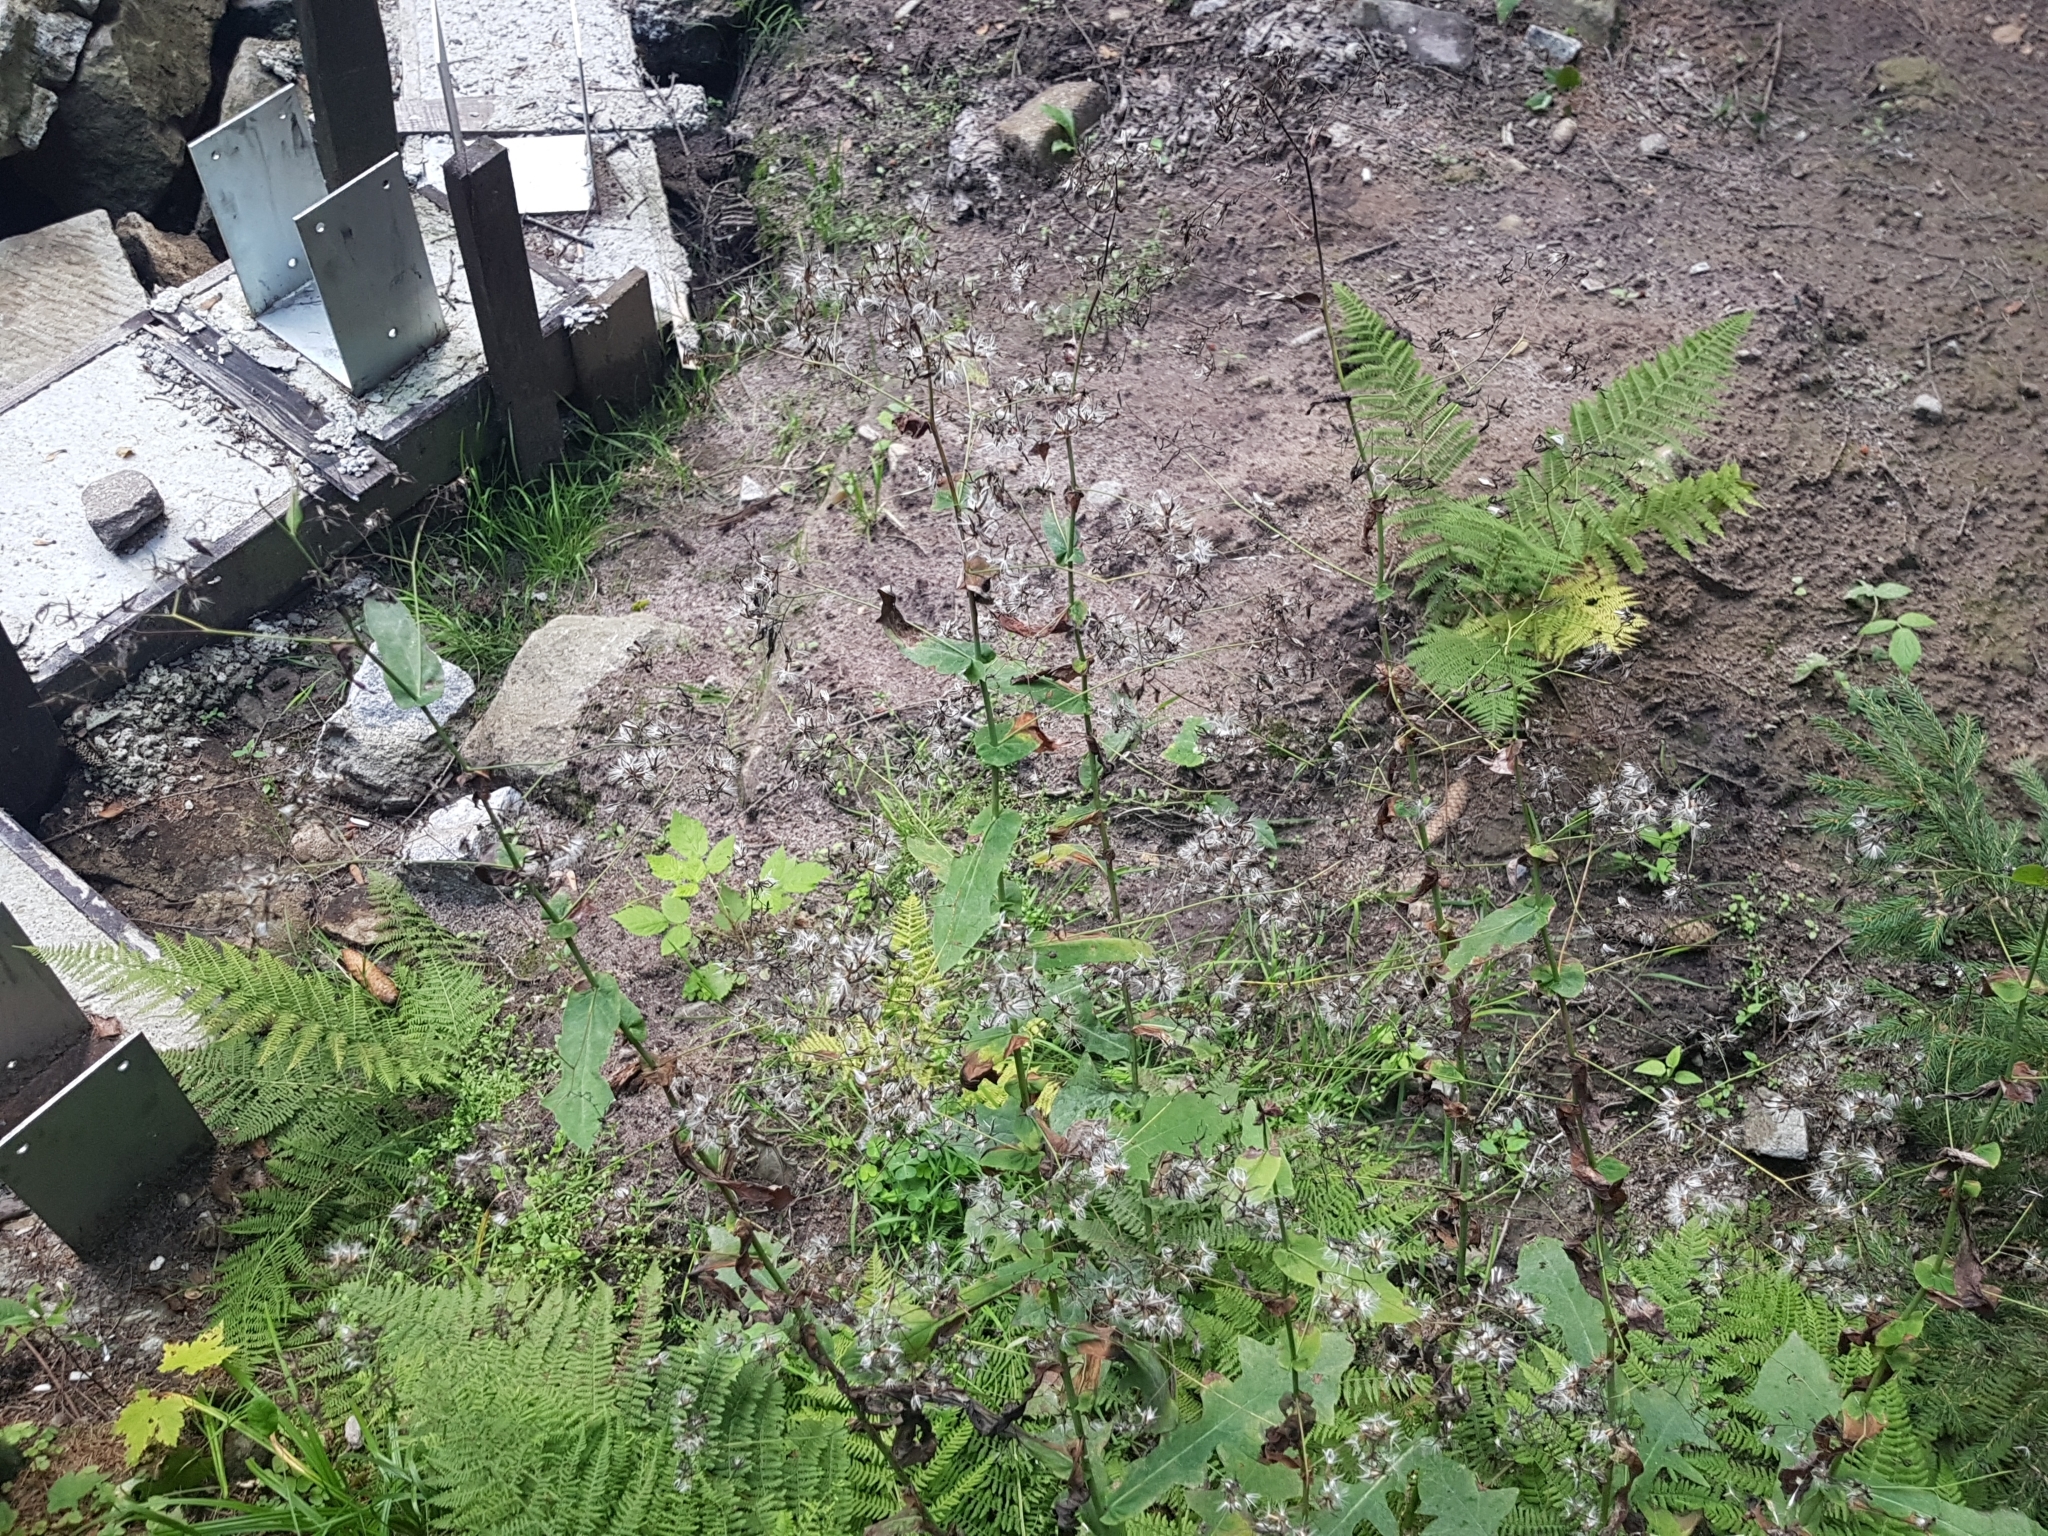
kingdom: Plantae
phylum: Tracheophyta
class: Magnoliopsida
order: Asterales
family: Asteraceae
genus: Prenanthes
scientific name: Prenanthes purpurea
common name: Purple lettuce
